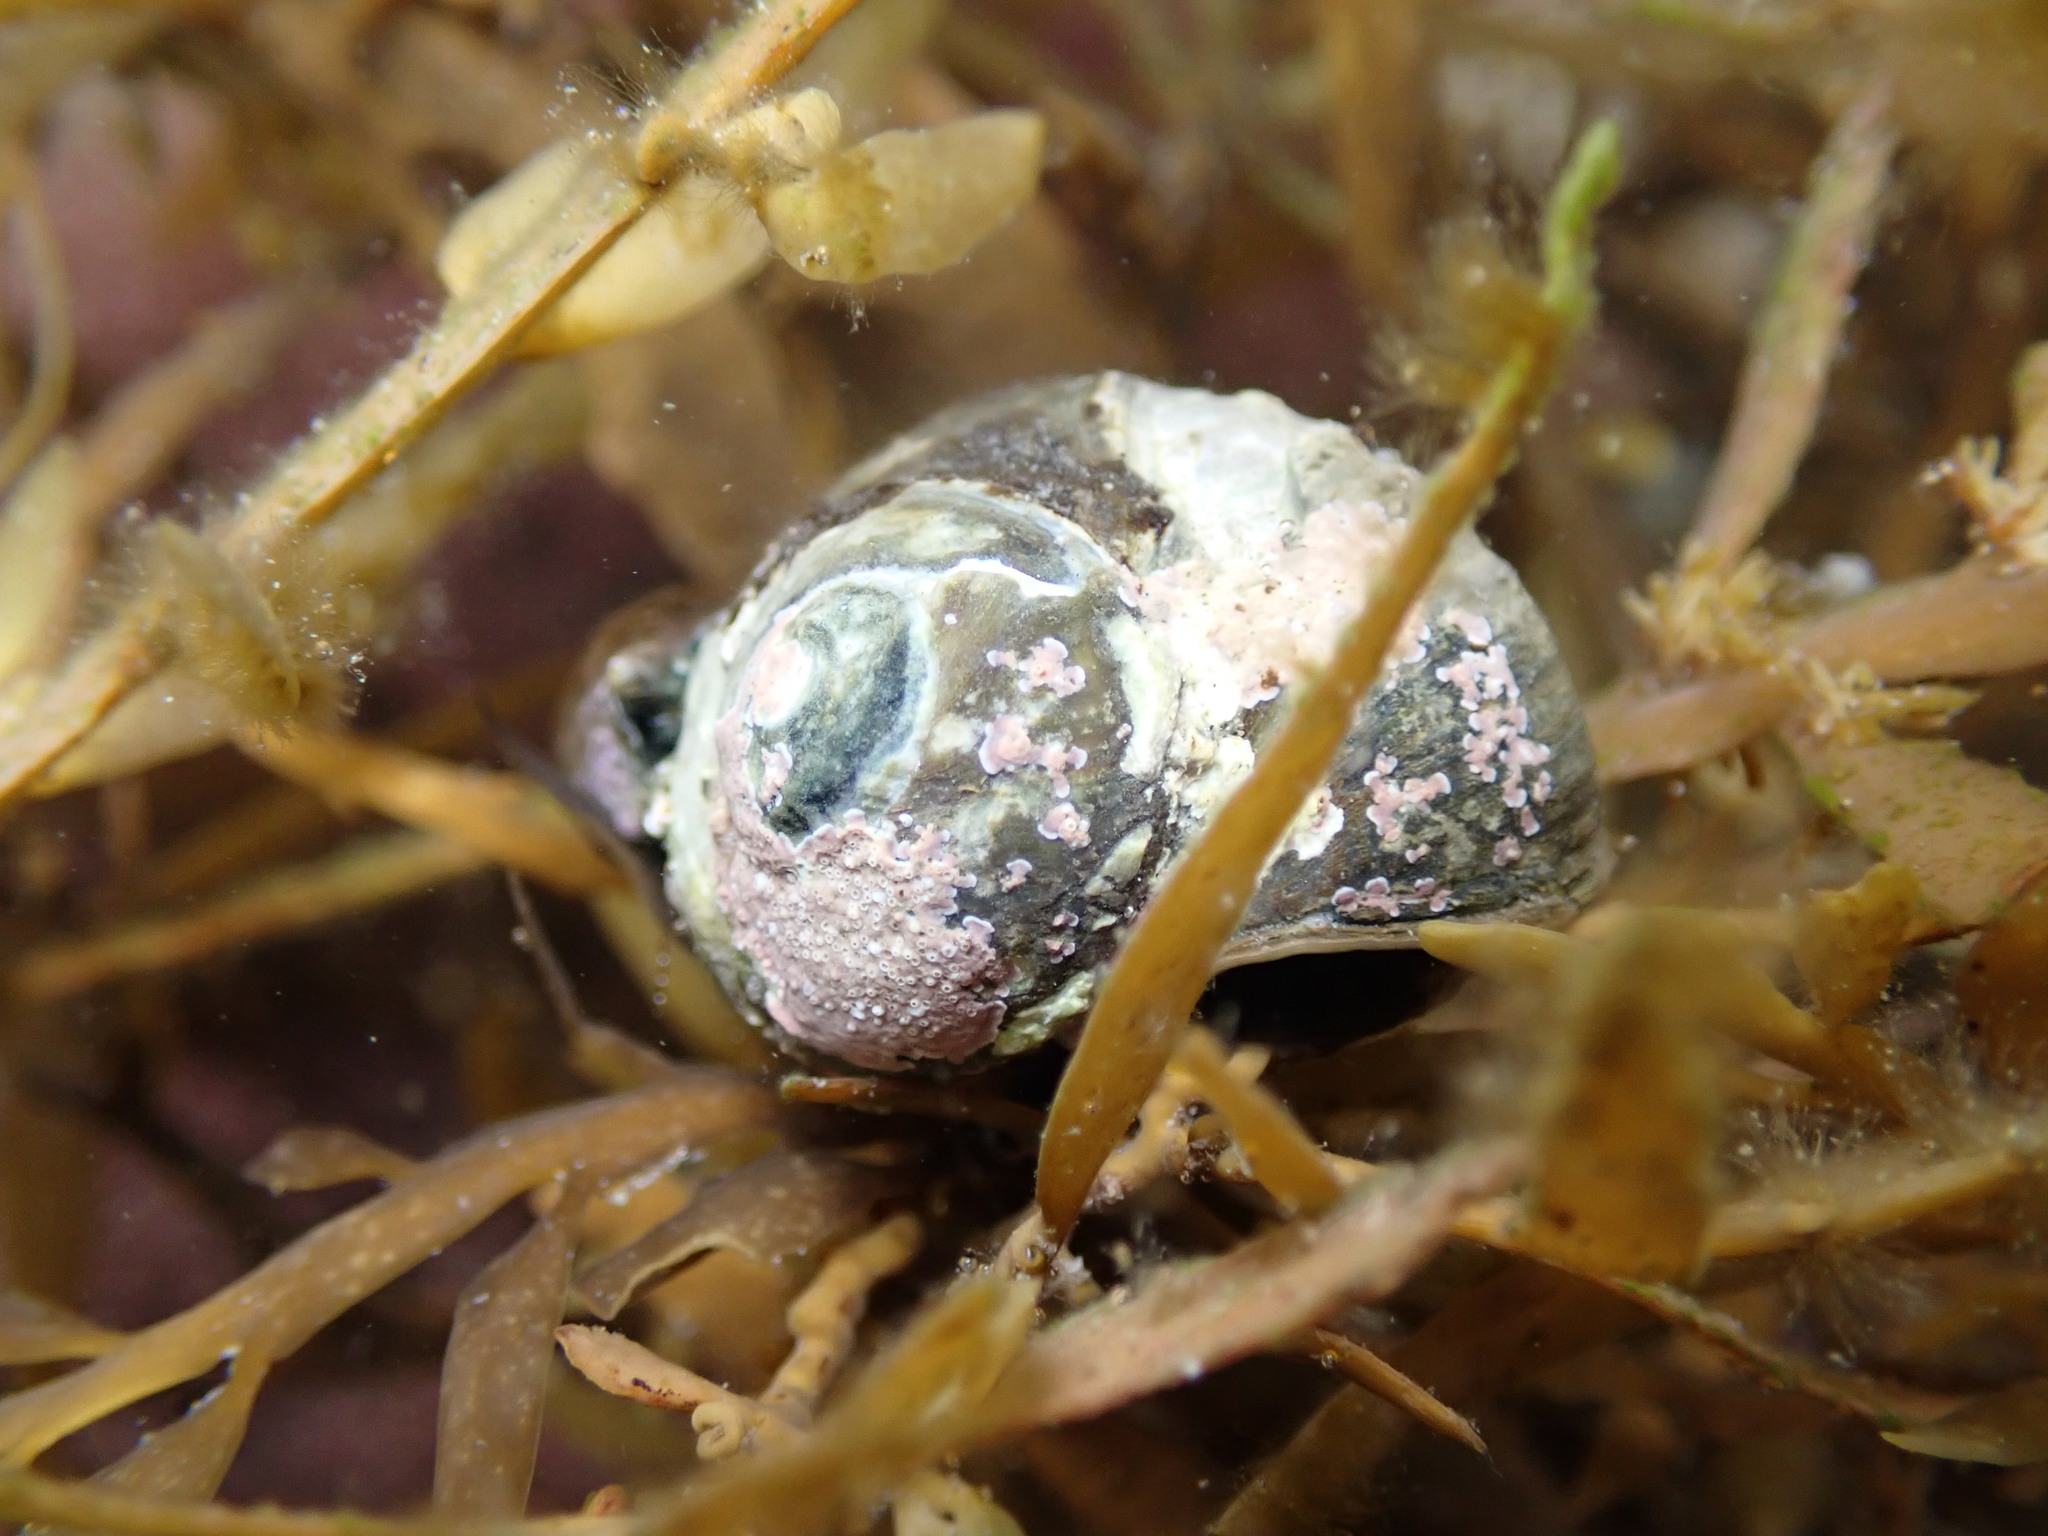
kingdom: Animalia
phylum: Mollusca
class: Gastropoda
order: Trochida
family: Turbinidae
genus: Lunella
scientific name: Lunella smaragda
